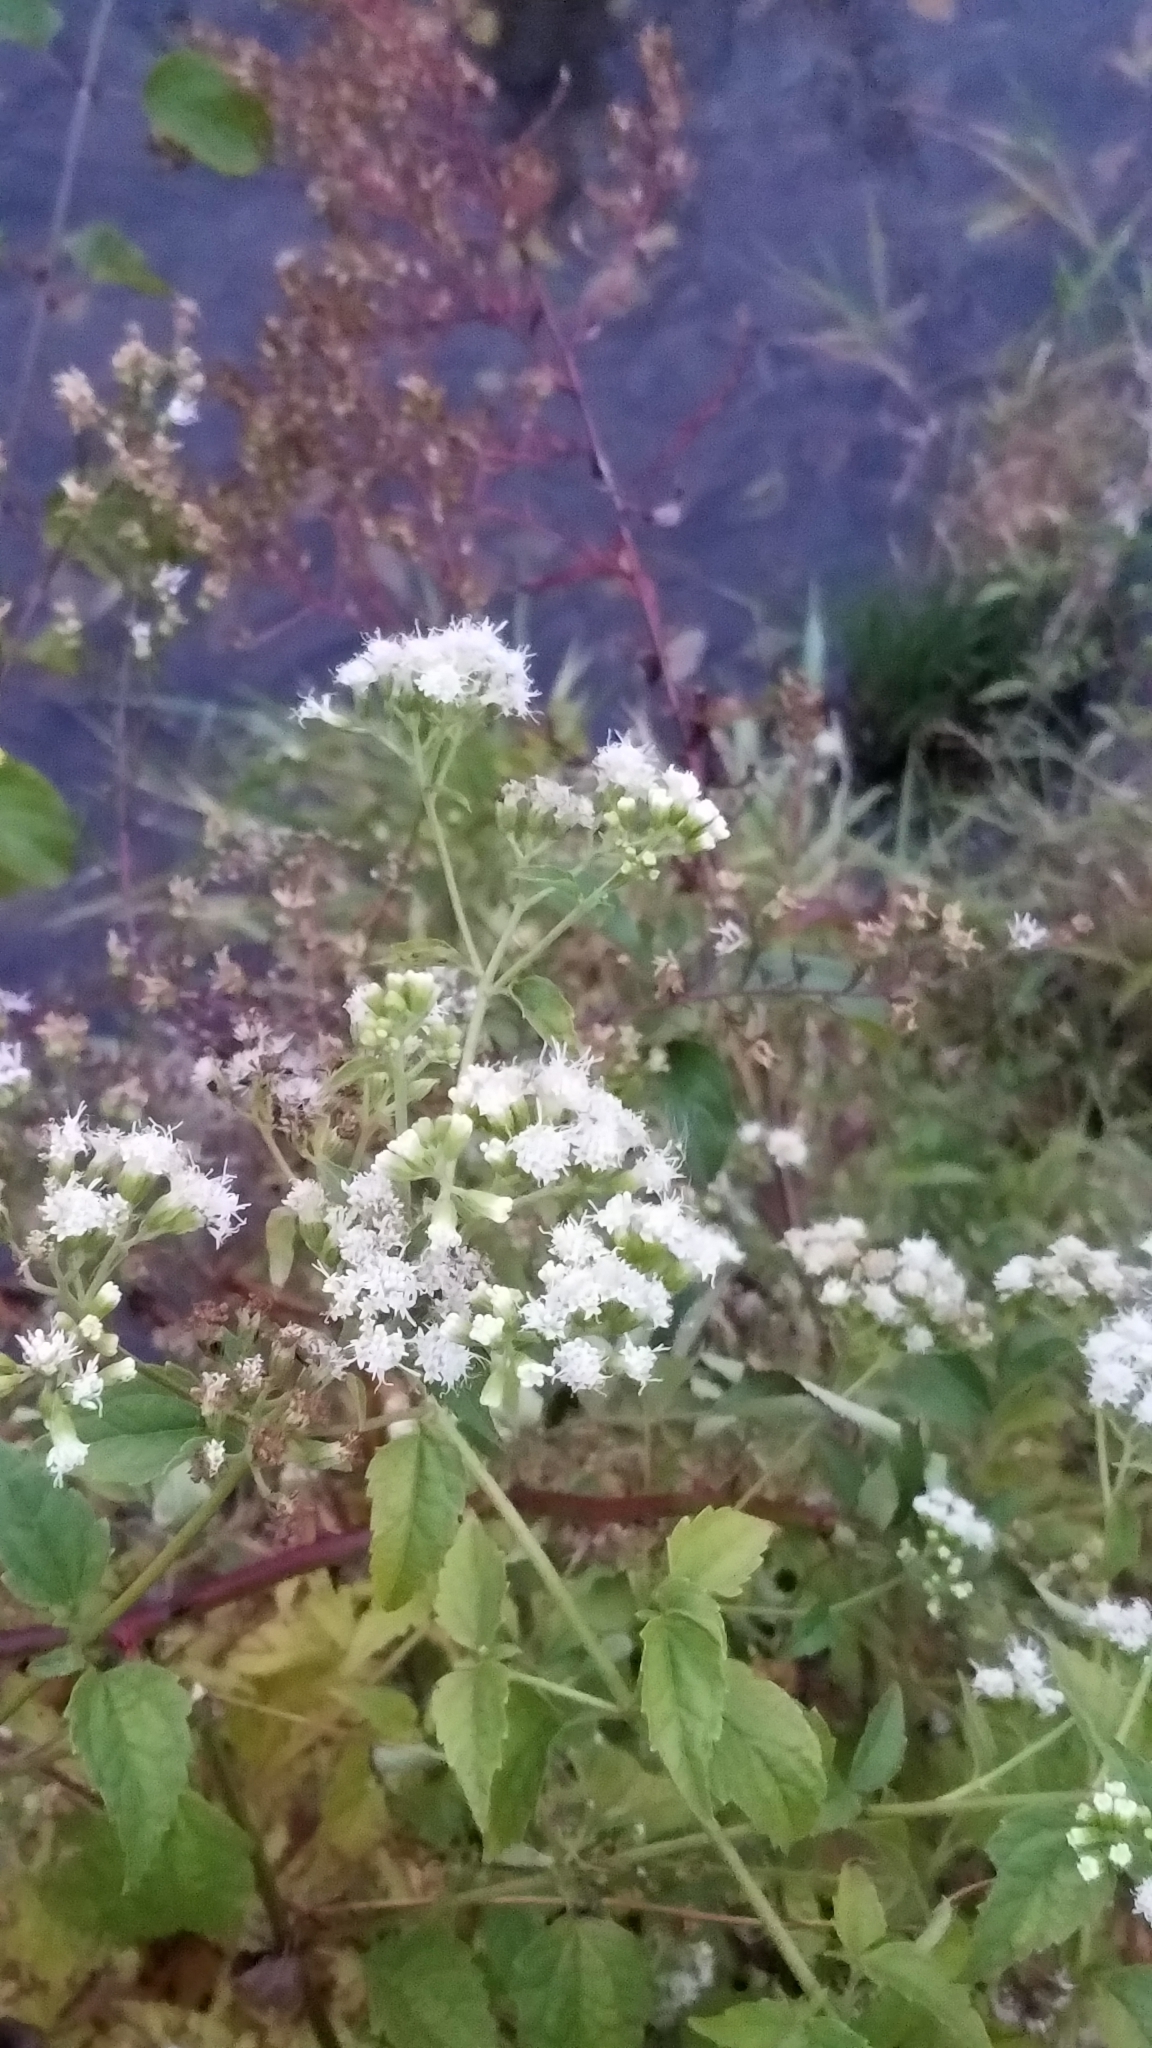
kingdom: Plantae
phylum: Tracheophyta
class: Magnoliopsida
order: Asterales
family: Asteraceae
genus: Ageratina
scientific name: Ageratina altissima
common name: White snakeroot
